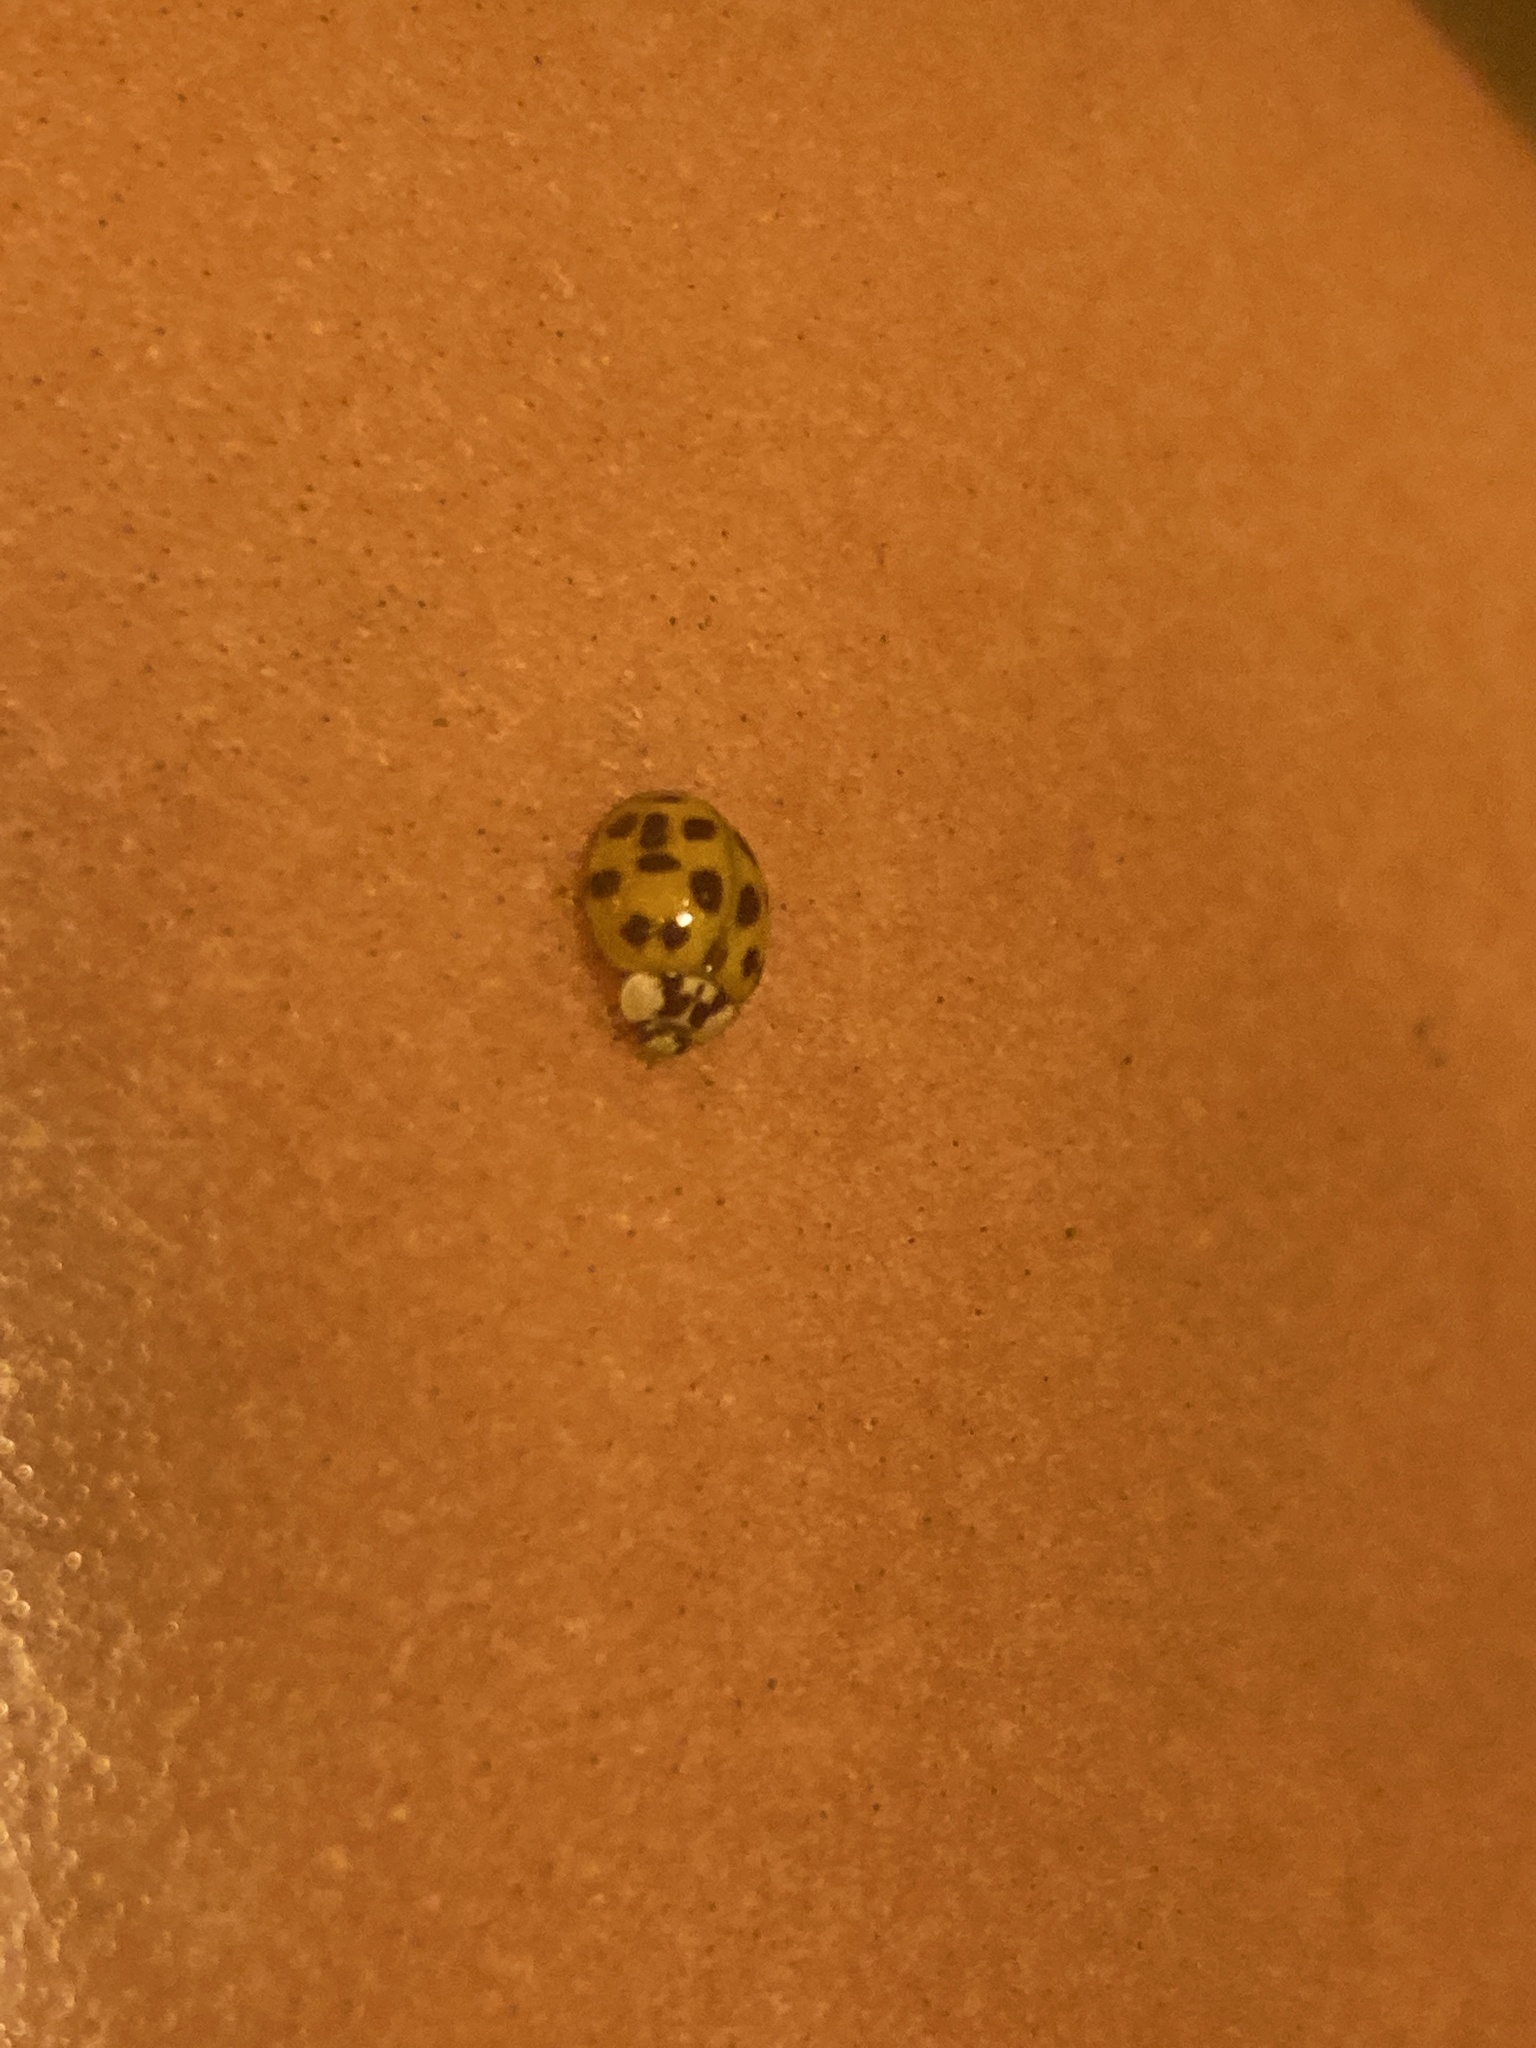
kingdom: Animalia
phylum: Arthropoda
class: Insecta
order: Coleoptera
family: Coccinellidae
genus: Harmonia
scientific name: Harmonia axyridis
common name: Harlequin ladybird
